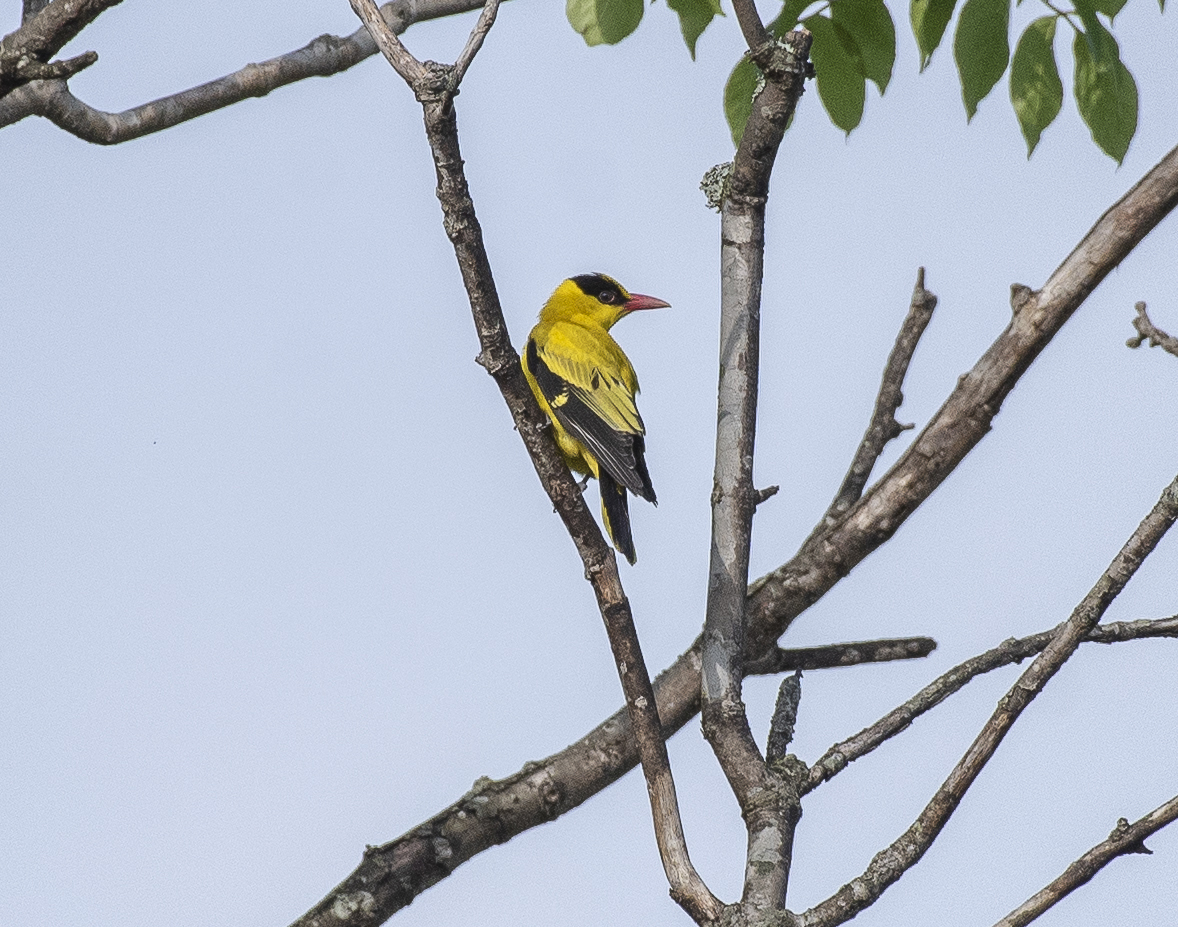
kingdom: Animalia
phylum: Chordata
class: Aves
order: Passeriformes
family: Oriolidae
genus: Oriolus
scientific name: Oriolus chinensis
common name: Black-naped oriole
